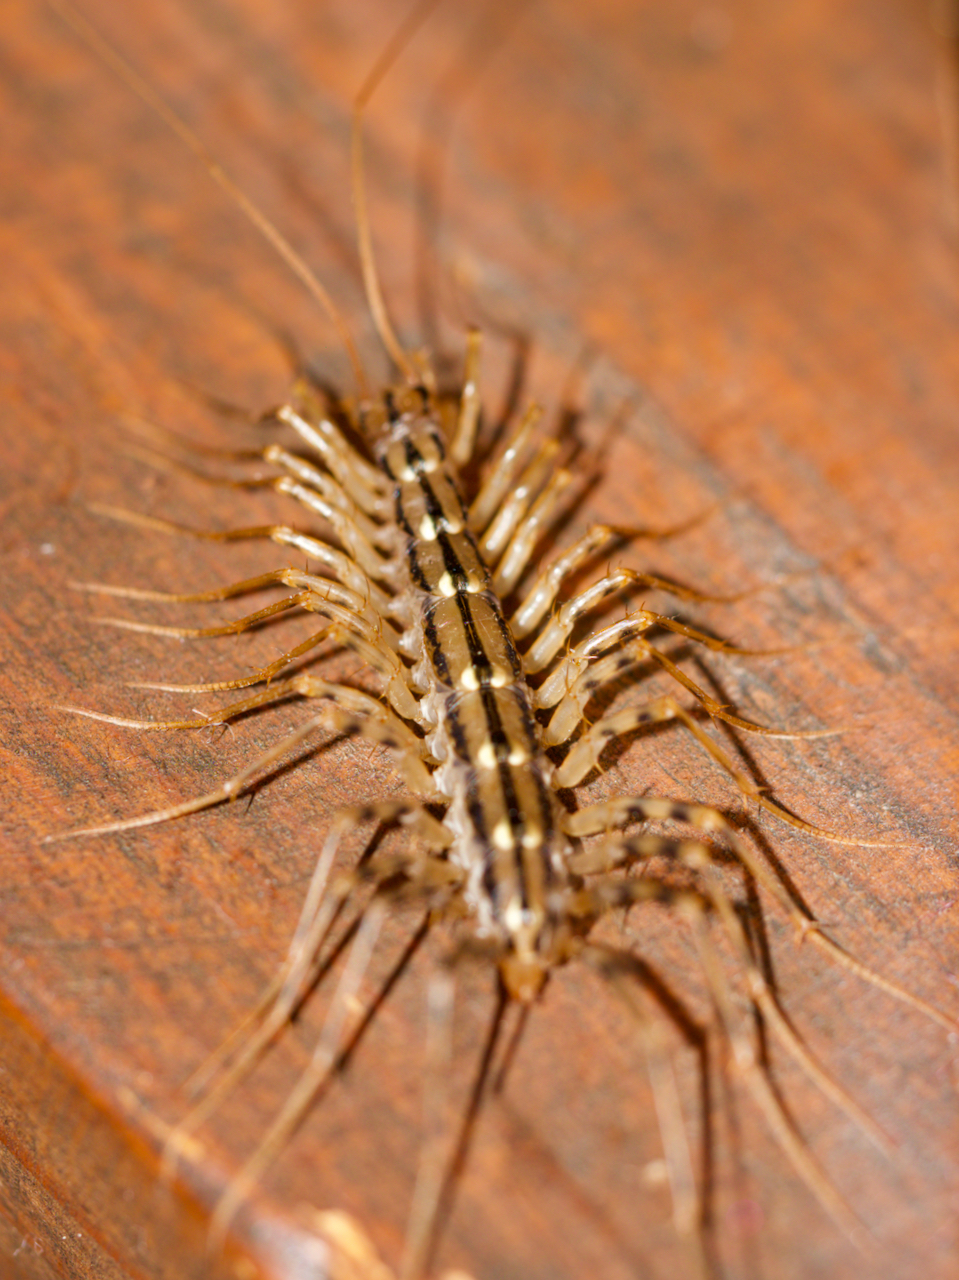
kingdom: Animalia
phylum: Arthropoda
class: Chilopoda
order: Scutigeromorpha
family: Scutigeridae
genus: Scutigera
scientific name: Scutigera coleoptrata
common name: House centipede
